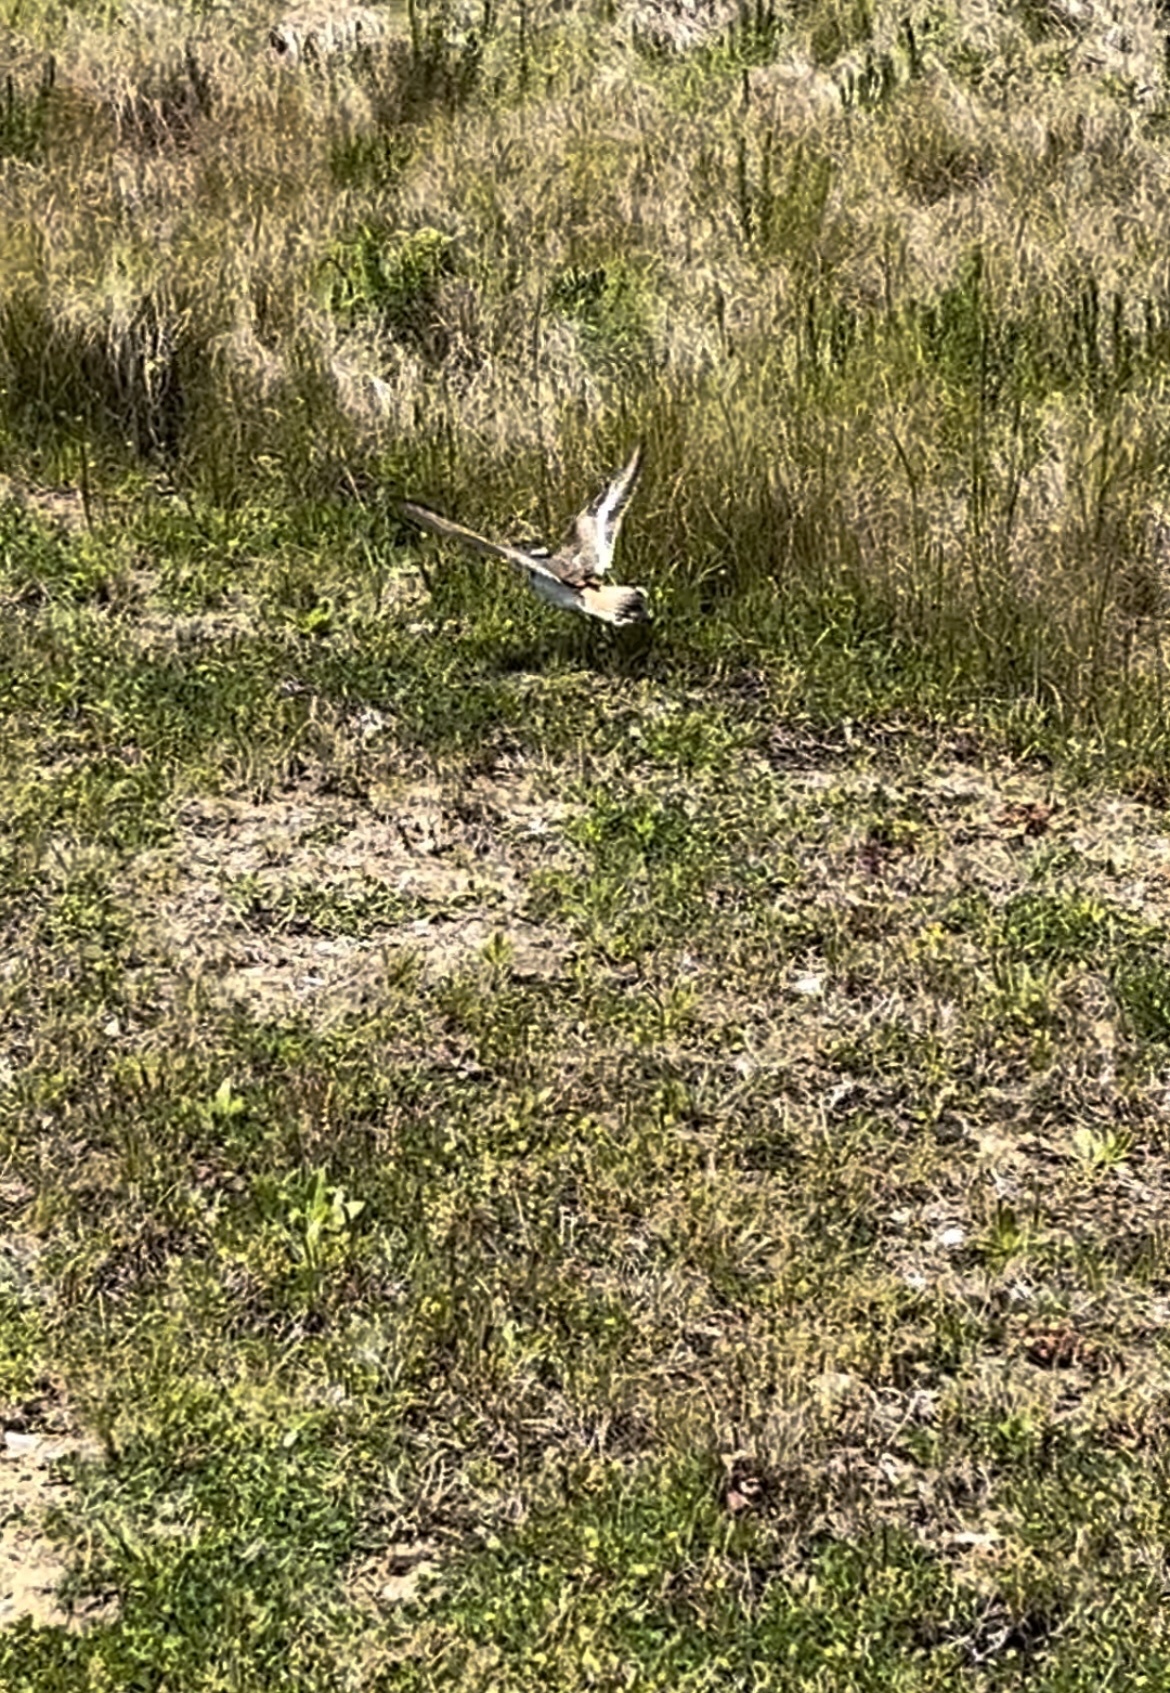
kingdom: Animalia
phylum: Chordata
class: Aves
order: Charadriiformes
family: Charadriidae
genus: Charadrius
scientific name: Charadrius vociferus
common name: Killdeer
